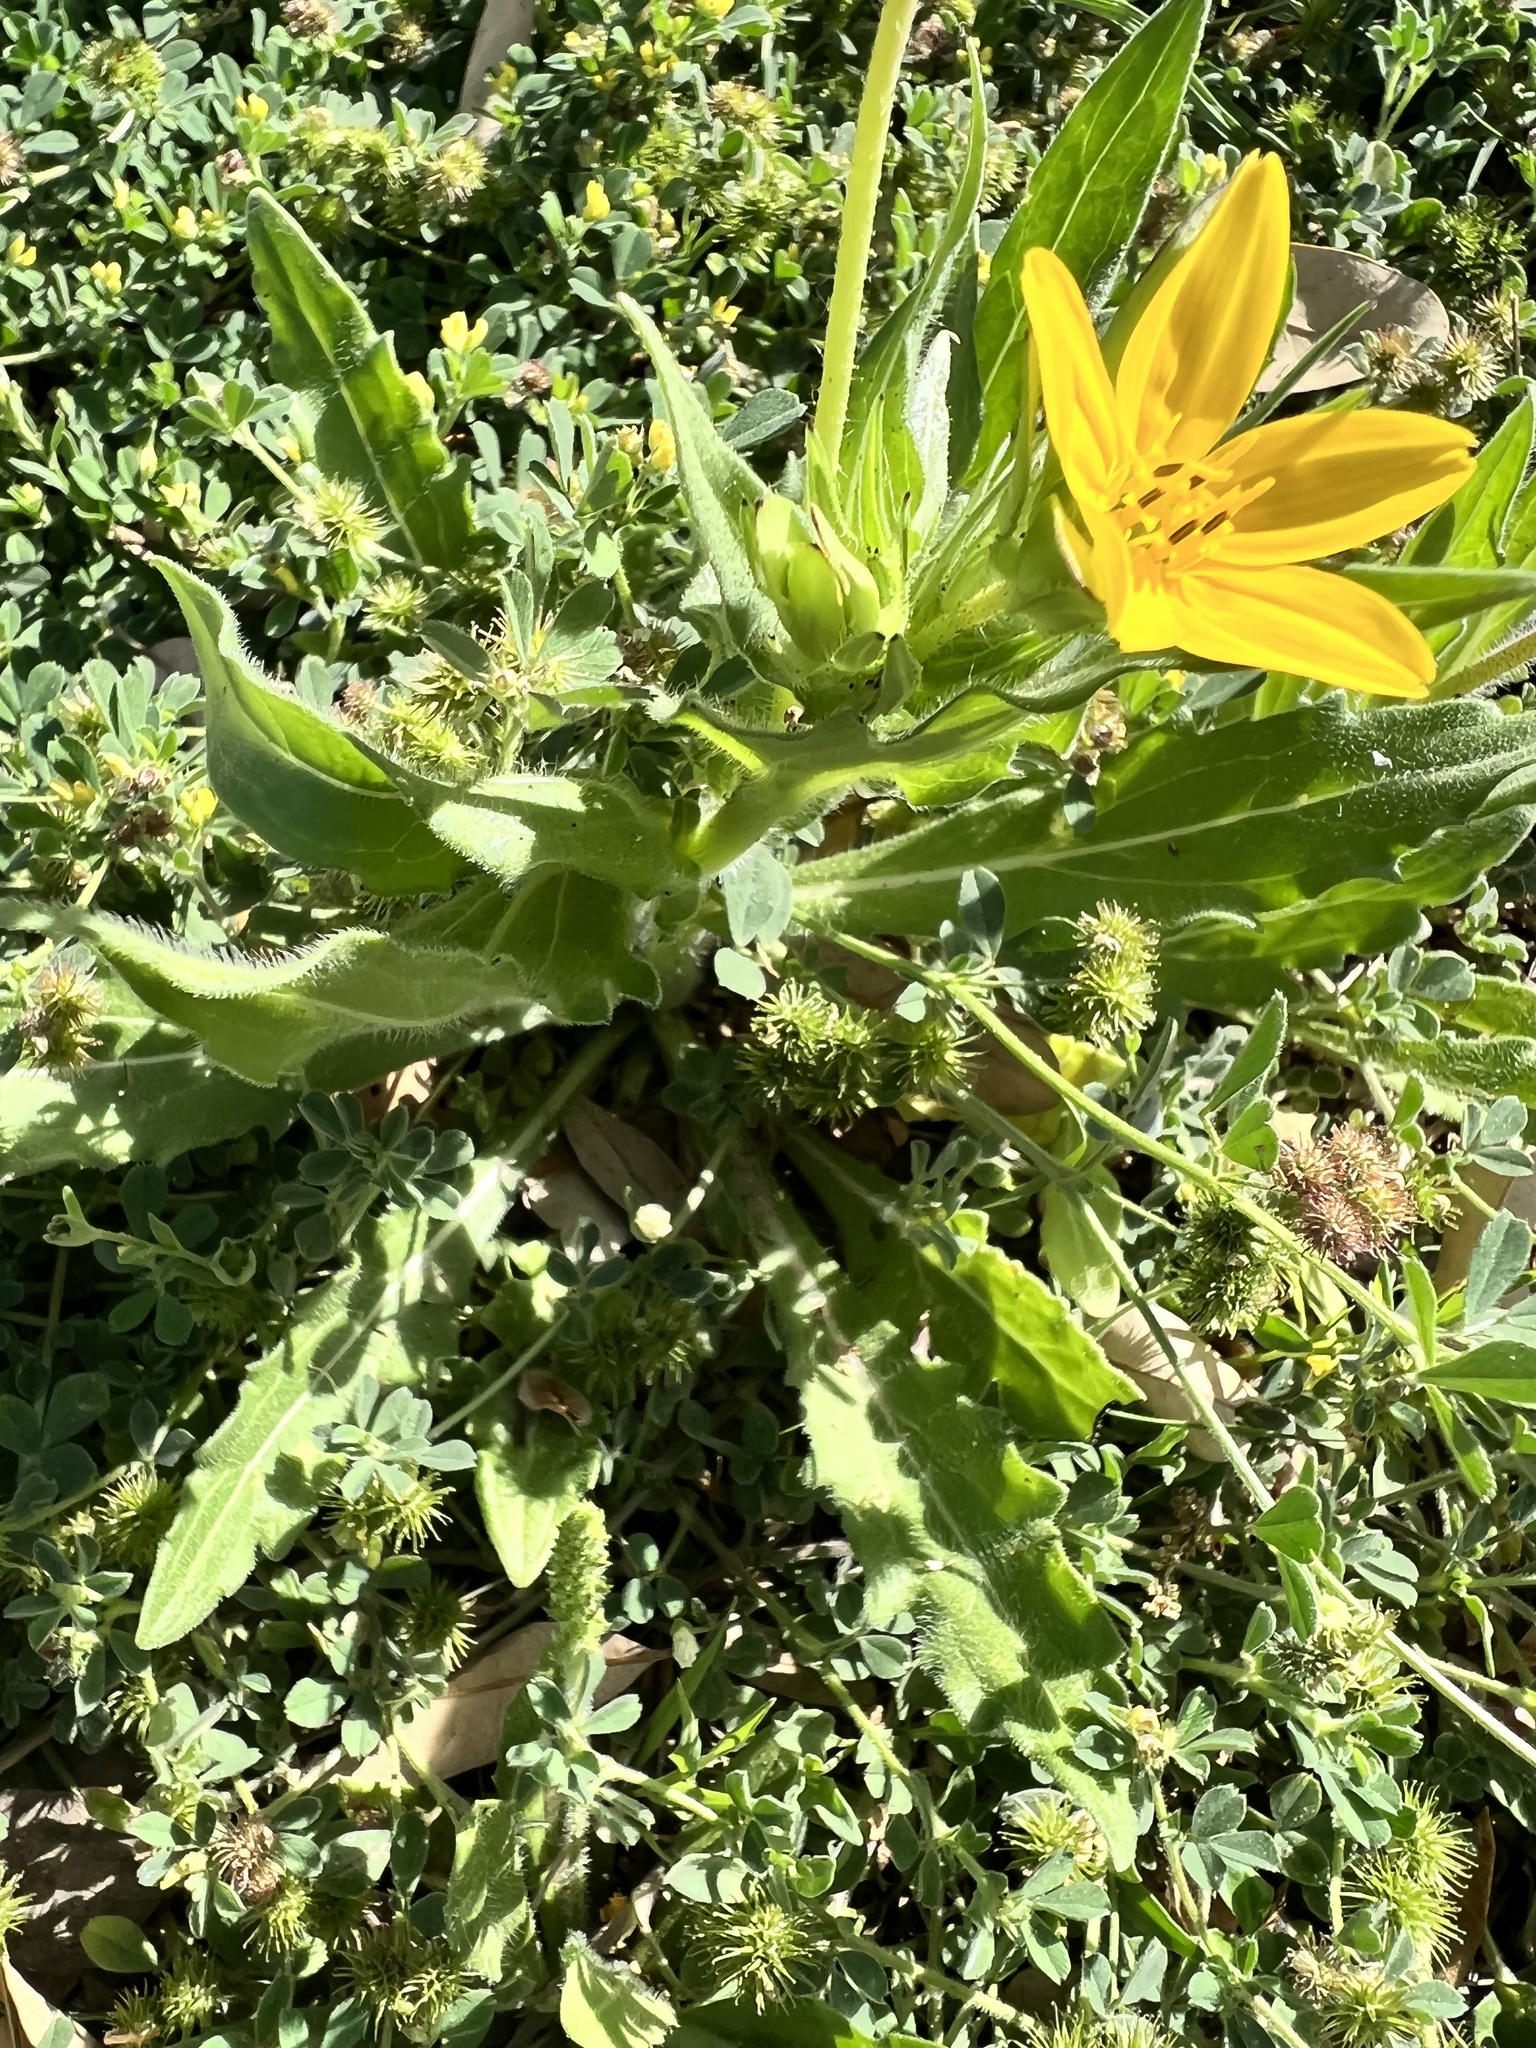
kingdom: Plantae
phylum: Tracheophyta
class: Magnoliopsida
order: Asterales
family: Asteraceae
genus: Lindheimera
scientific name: Lindheimera texana
